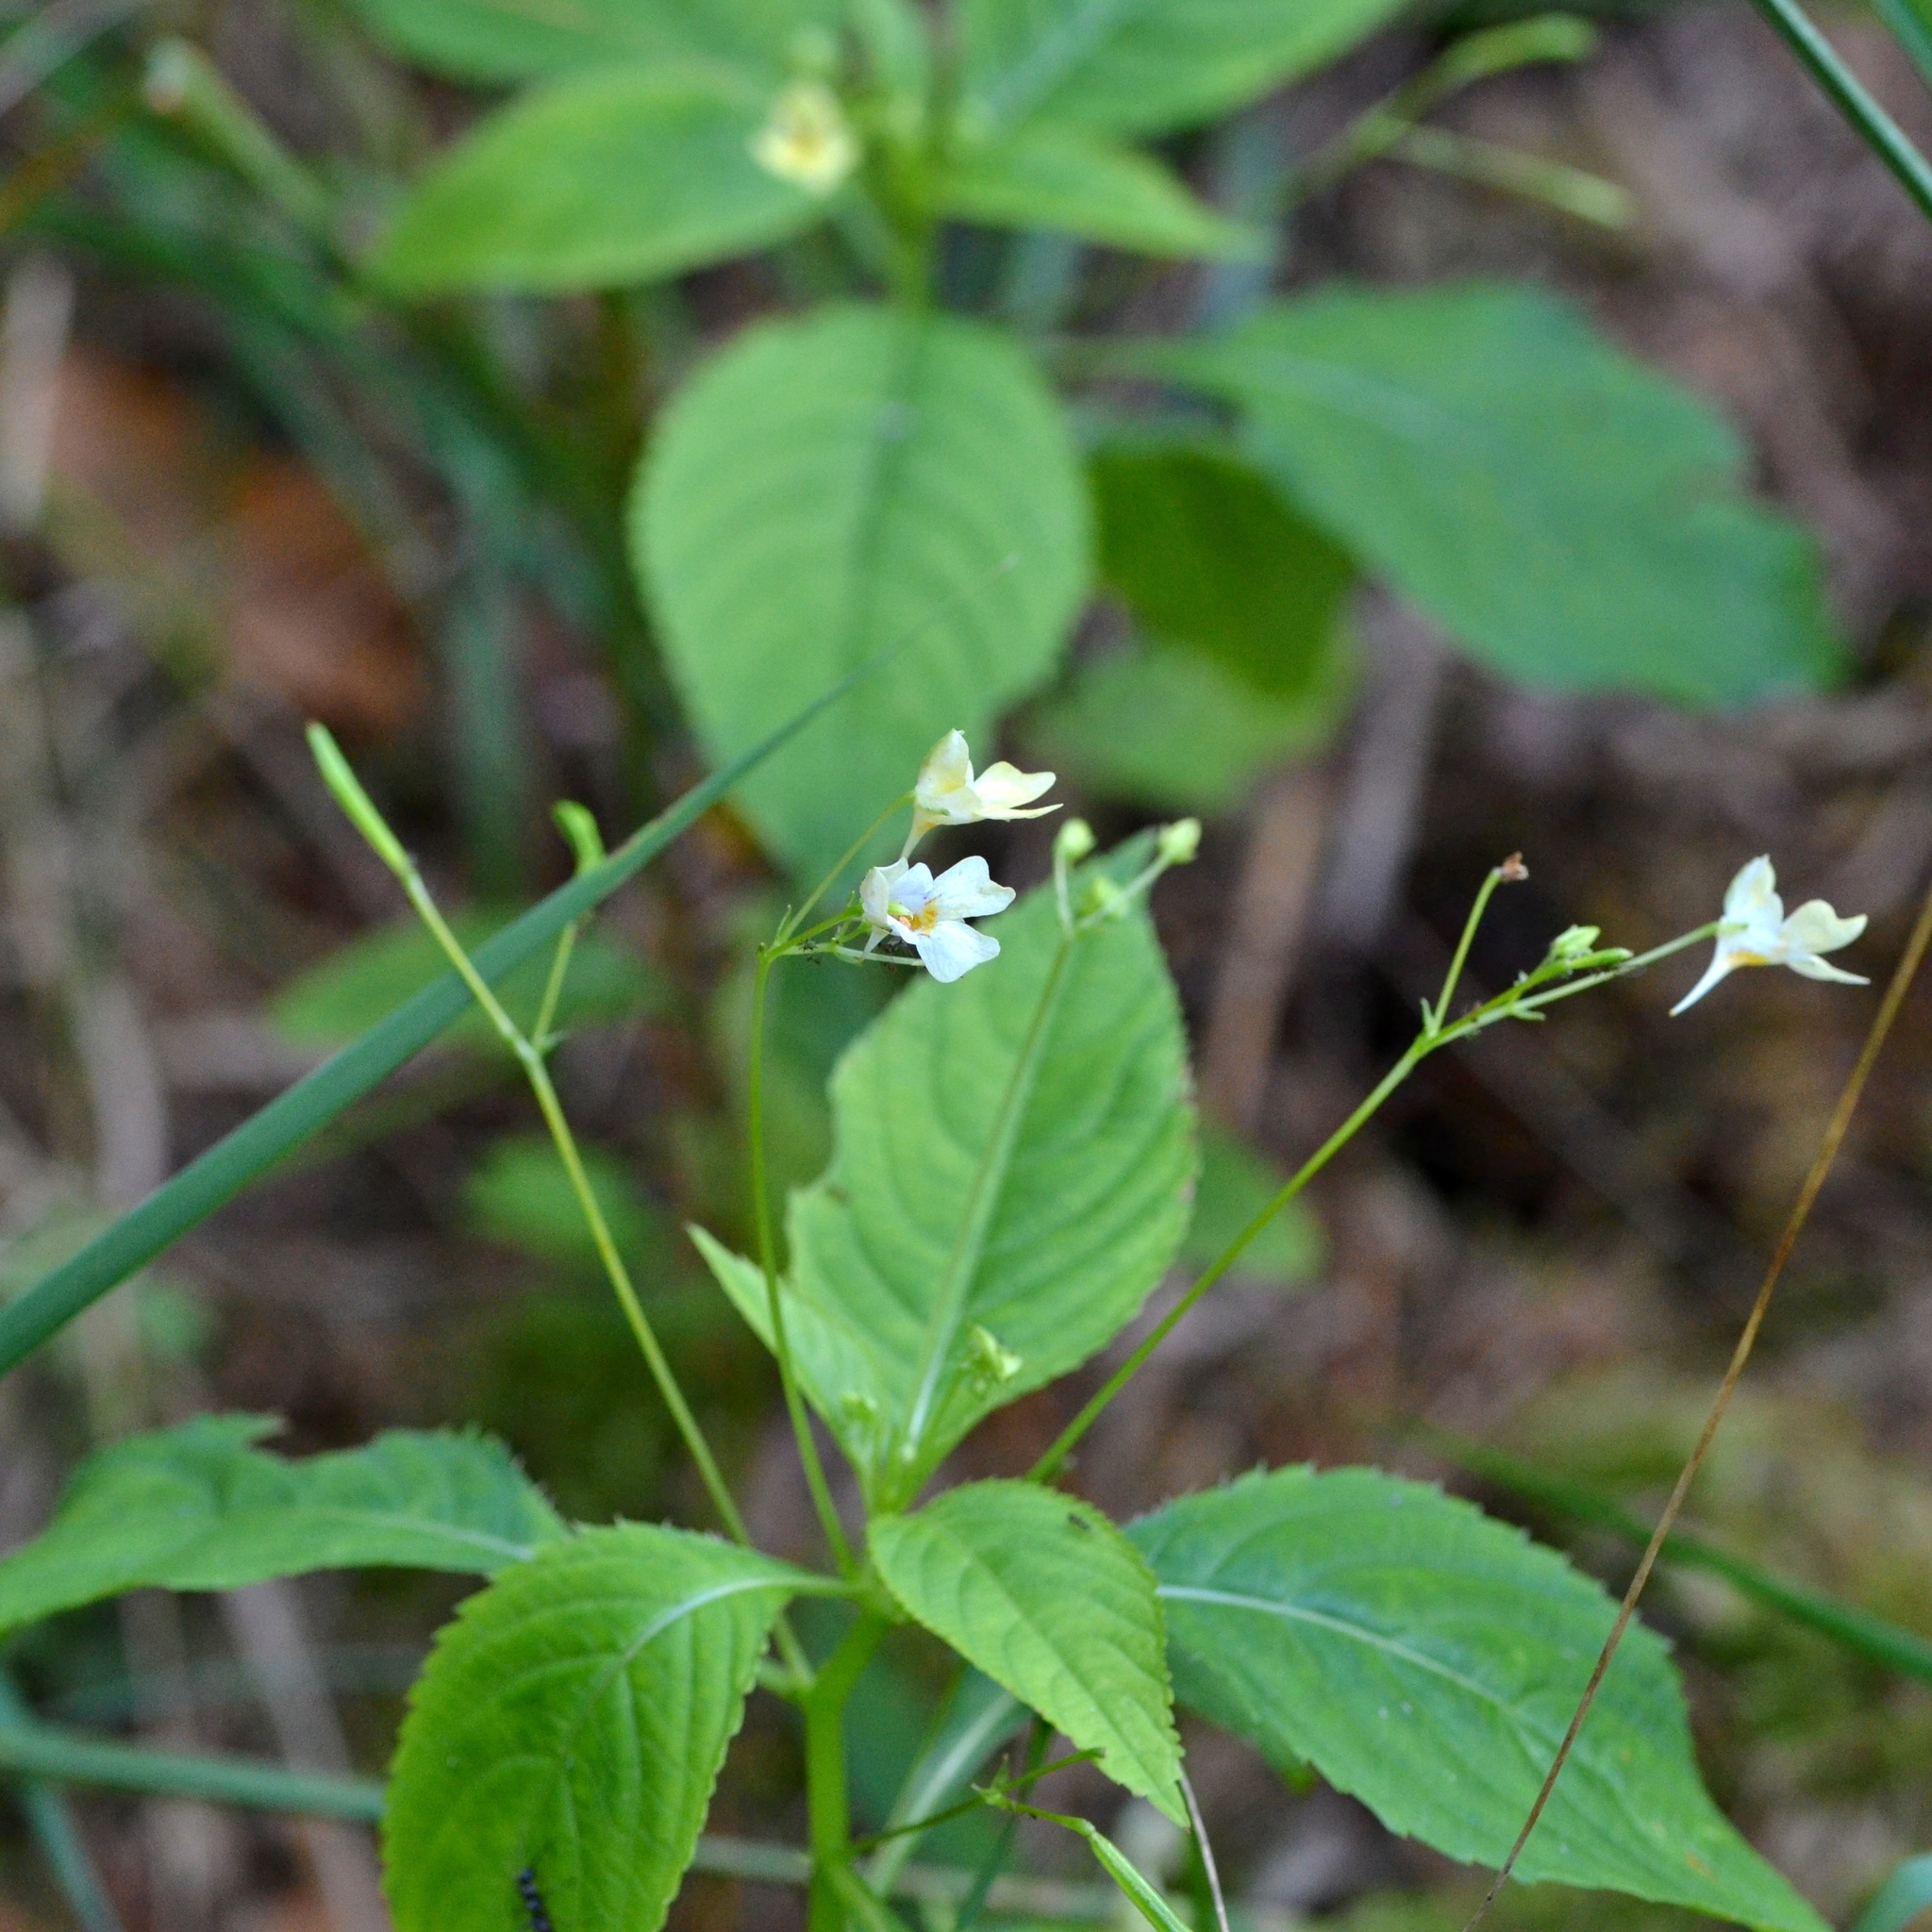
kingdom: Plantae
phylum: Tracheophyta
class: Magnoliopsida
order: Ericales
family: Balsaminaceae
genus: Impatiens
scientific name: Impatiens parviflora
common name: Small balsam
